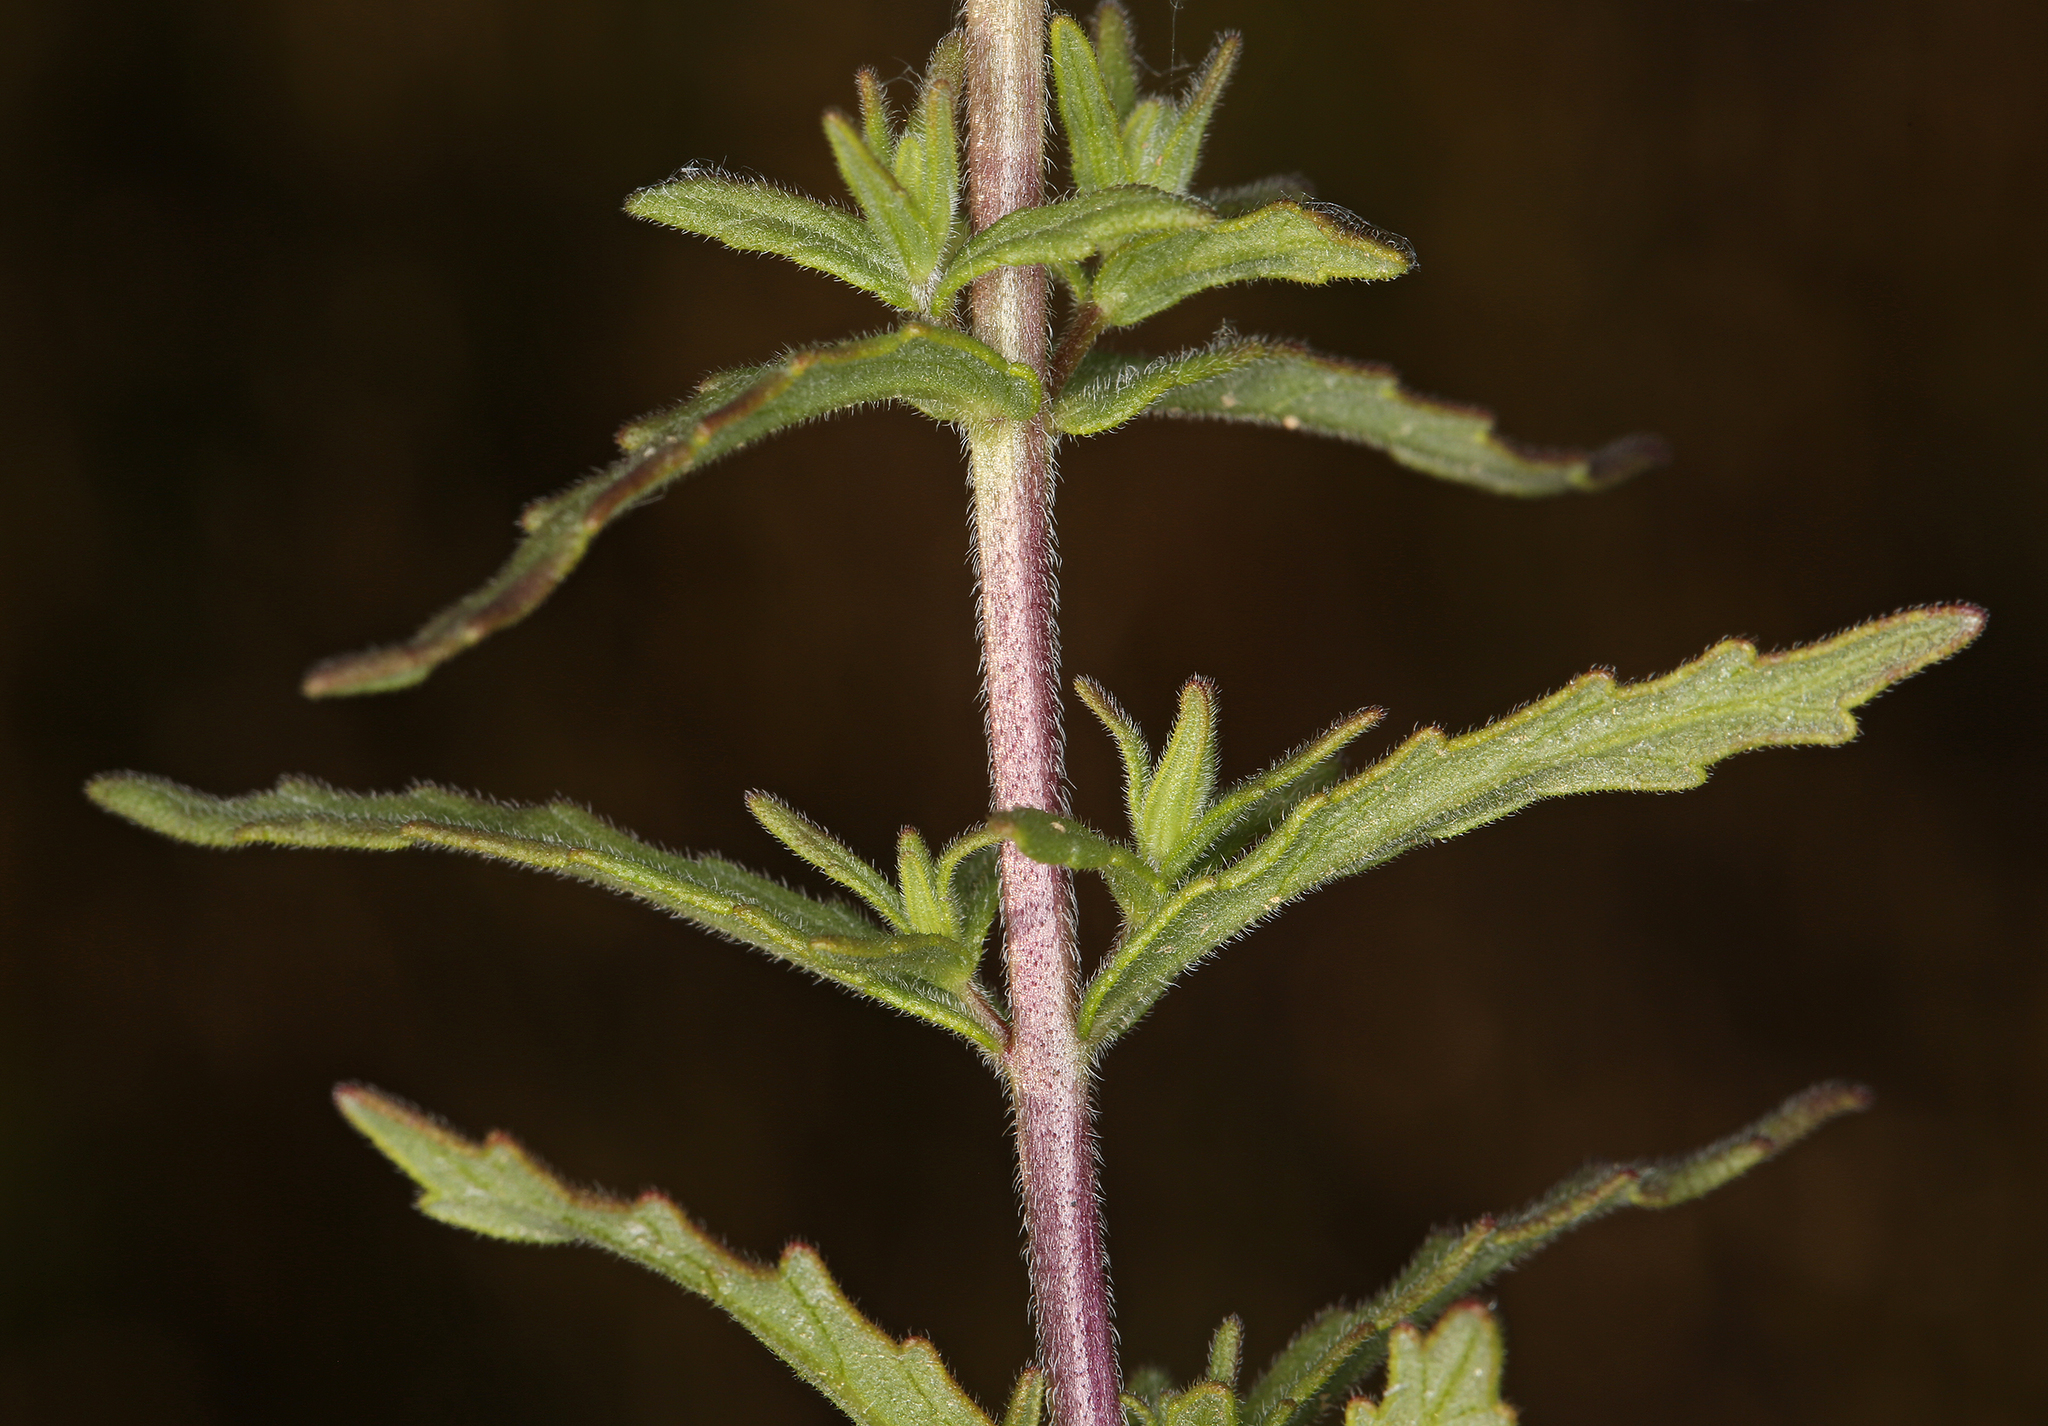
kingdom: Plantae
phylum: Tracheophyta
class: Magnoliopsida
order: Lamiales
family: Orobanchaceae
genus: Bellardia
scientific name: Bellardia trixago
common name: Mediterranean lineseed
